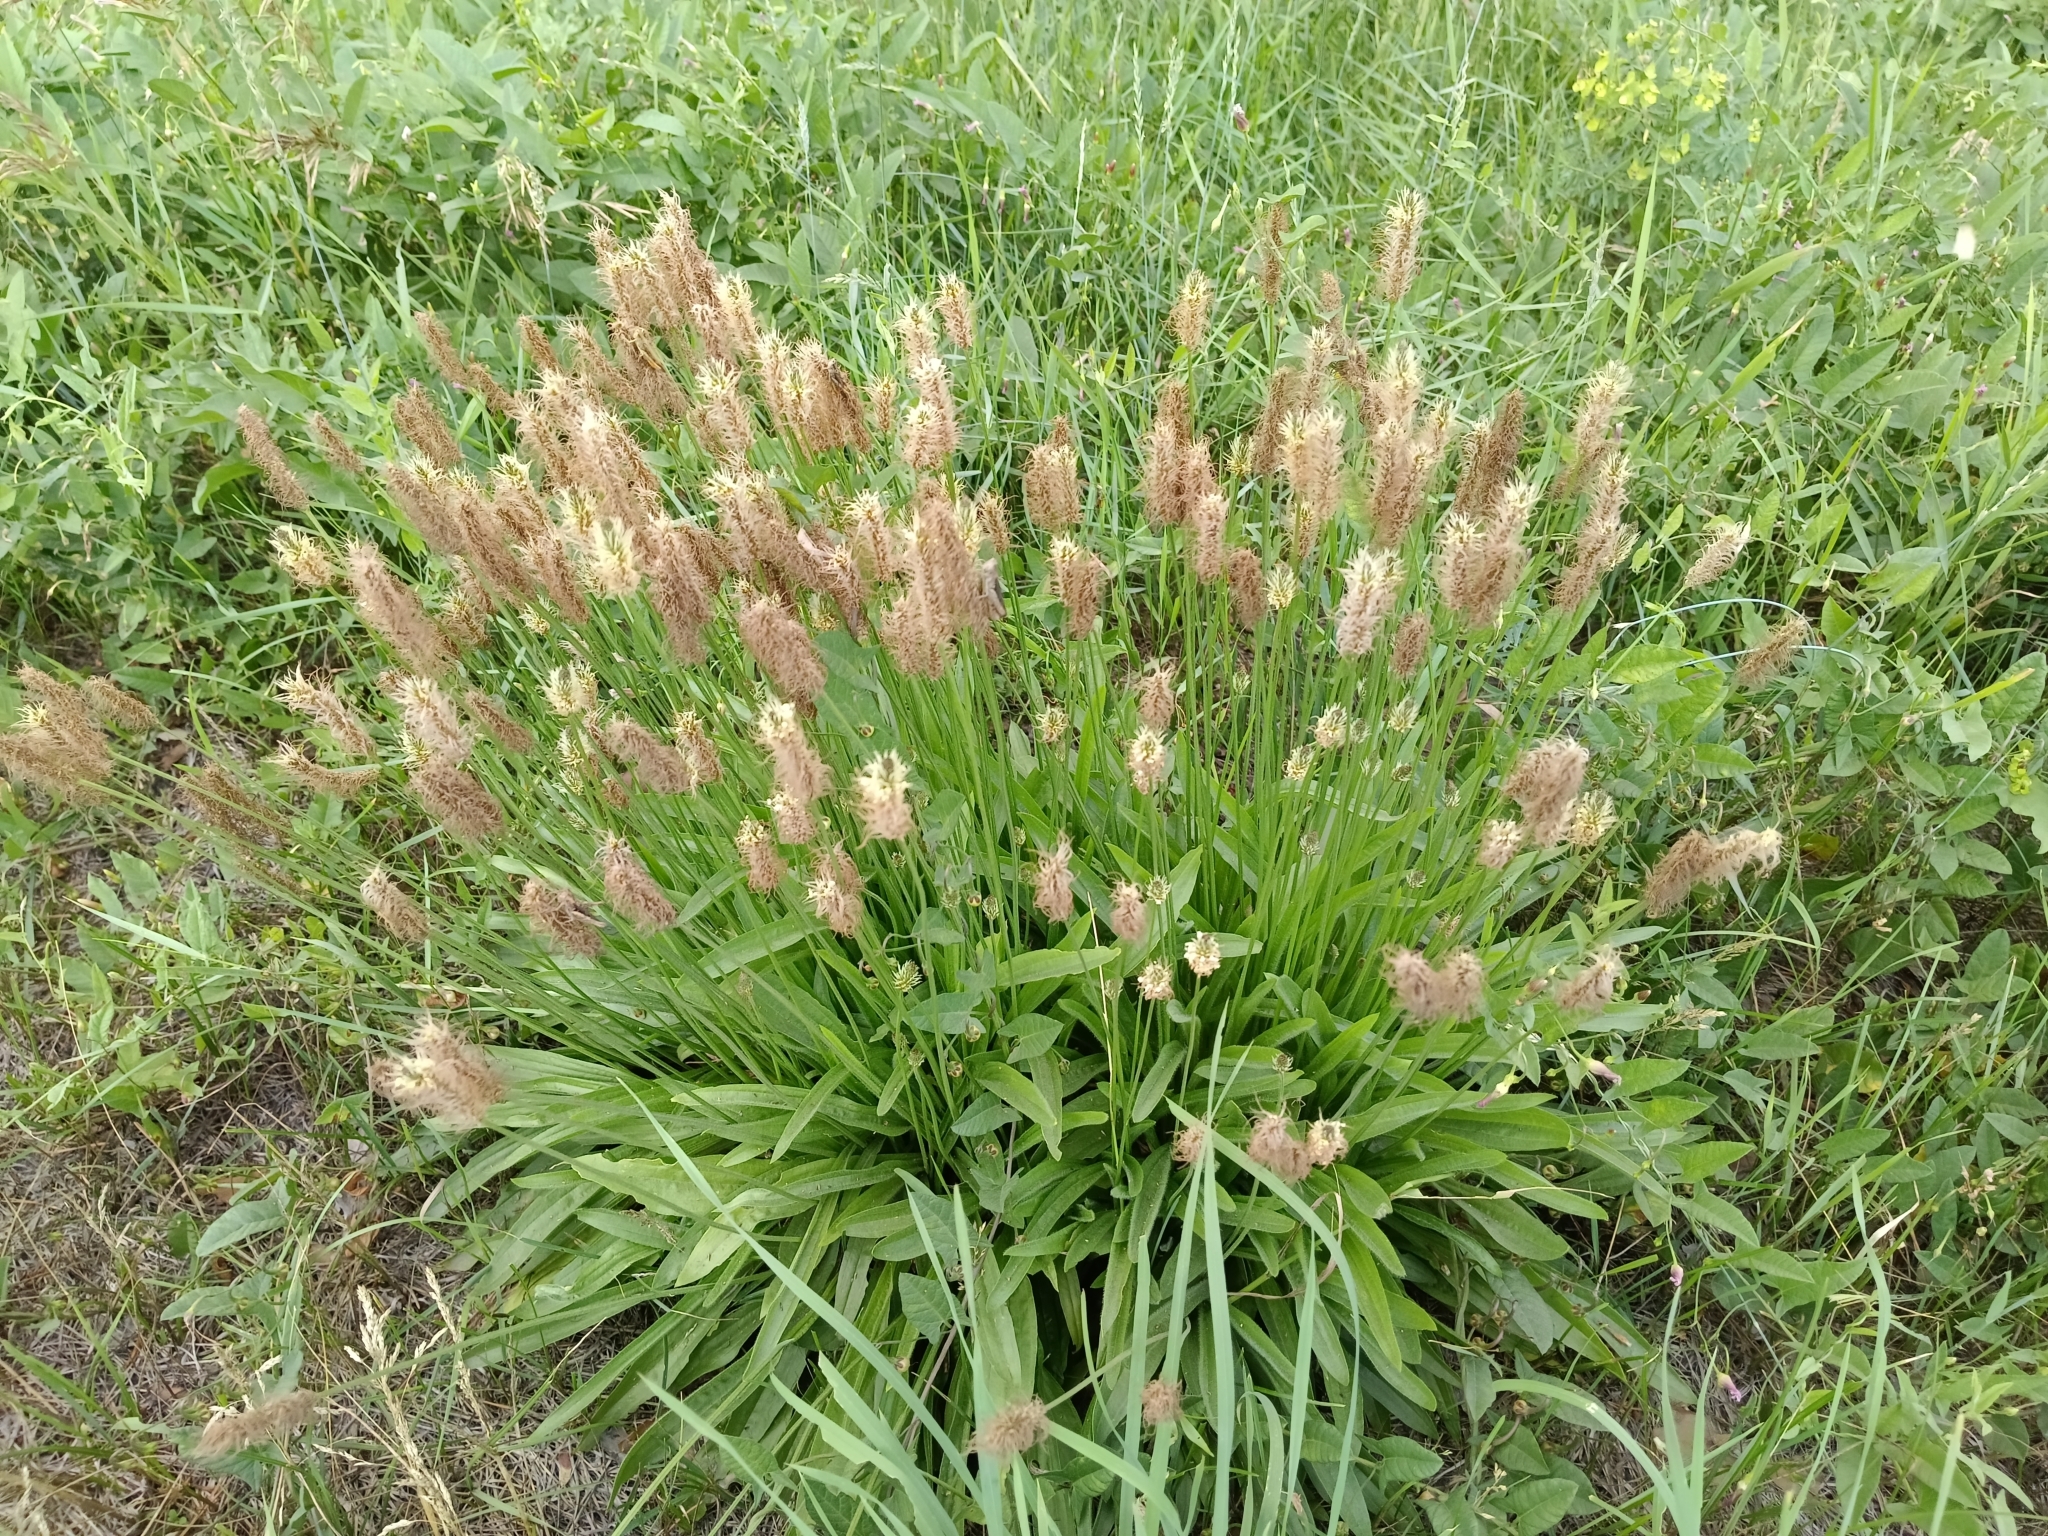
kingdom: Plantae
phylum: Tracheophyta
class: Magnoliopsida
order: Lamiales
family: Plantaginaceae
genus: Plantago
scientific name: Plantago lanceolata
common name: Ribwort plantain
